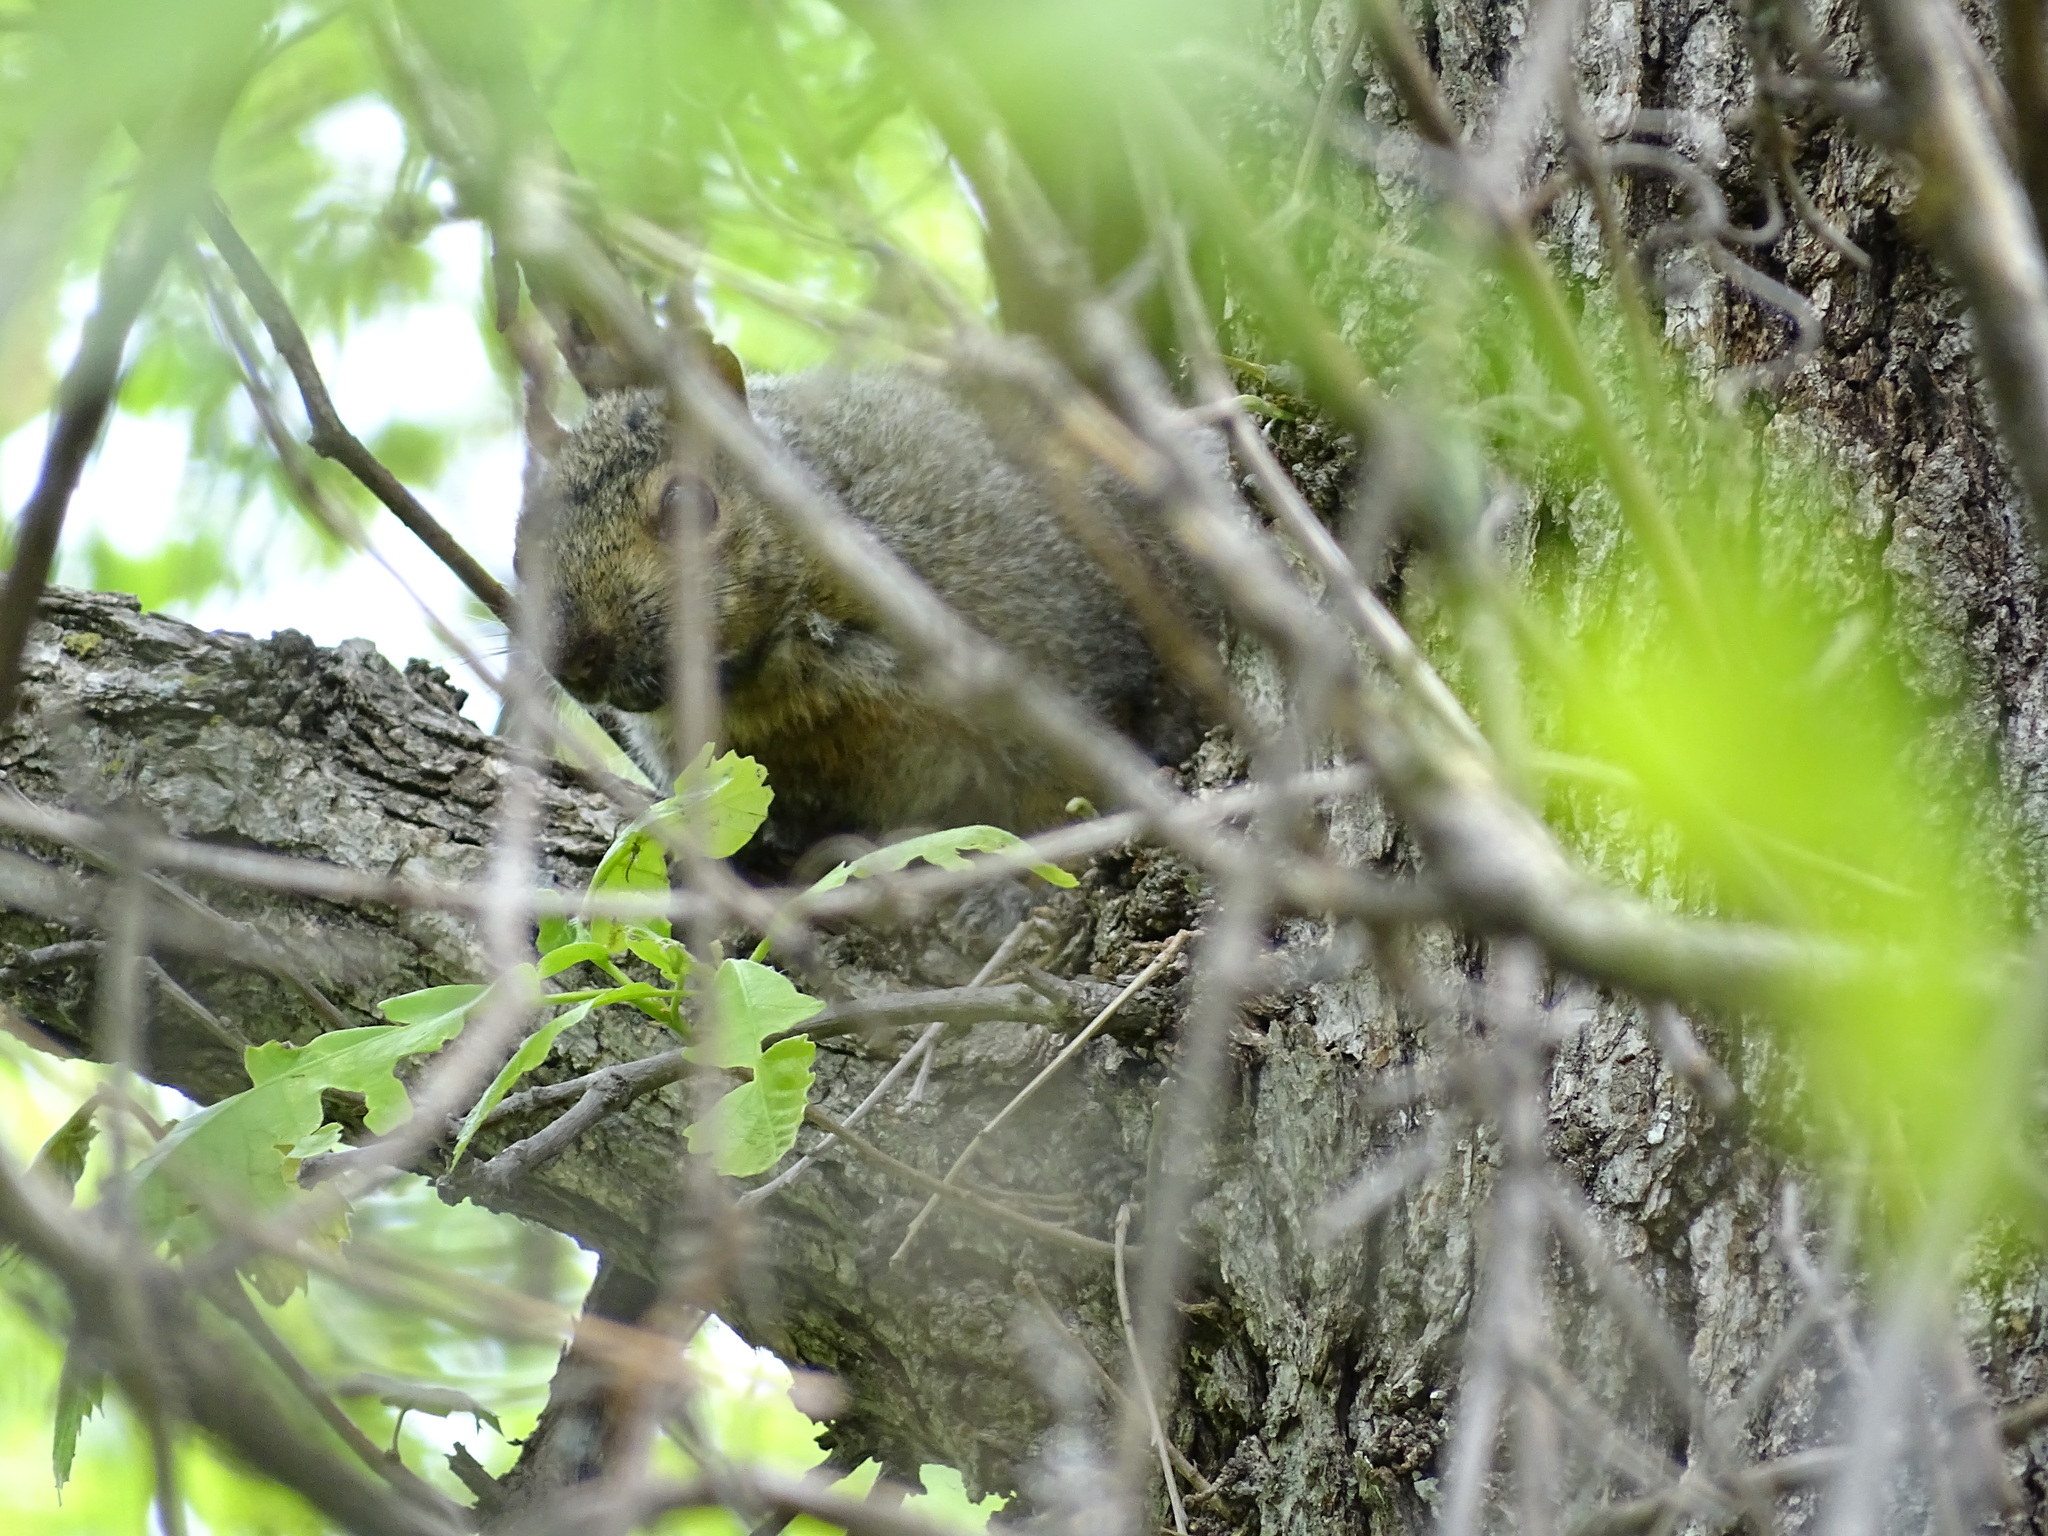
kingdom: Animalia
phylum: Chordata
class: Mammalia
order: Rodentia
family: Sciuridae
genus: Sciurus
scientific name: Sciurus carolinensis
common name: Eastern gray squirrel
